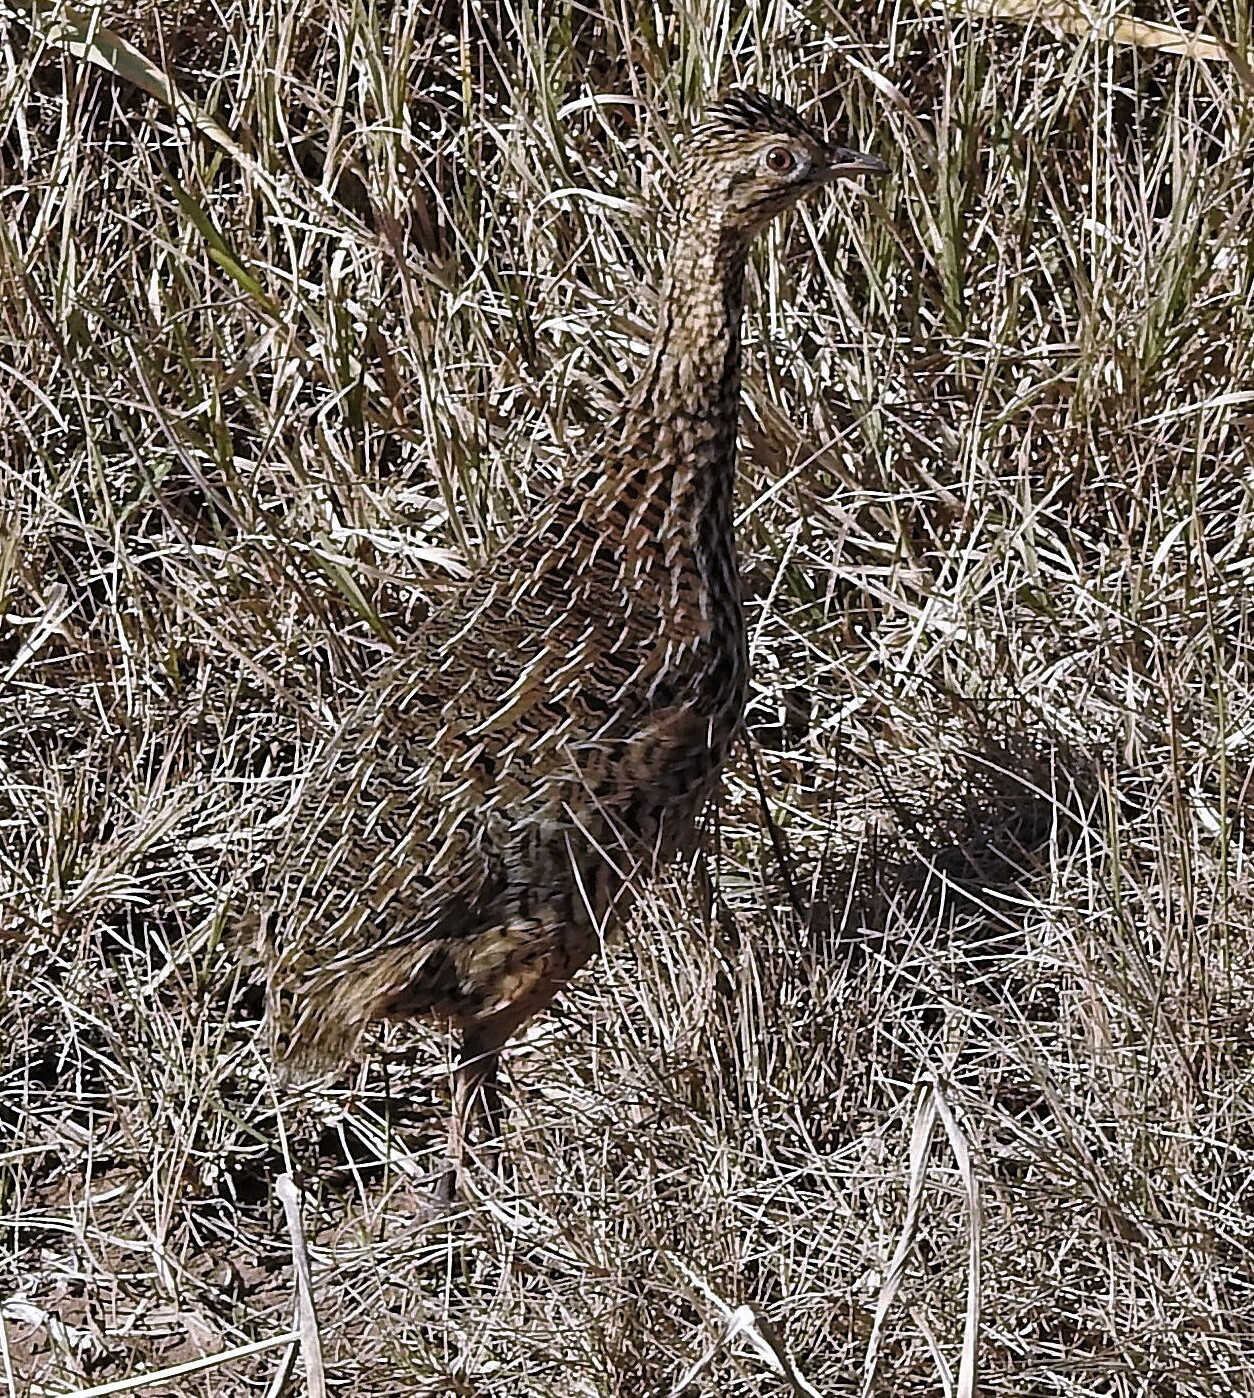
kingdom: Animalia
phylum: Chordata
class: Aves
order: Tinamiformes
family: Tinamidae
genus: Nothura
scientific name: Nothura maculosa
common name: Spotted nothura
